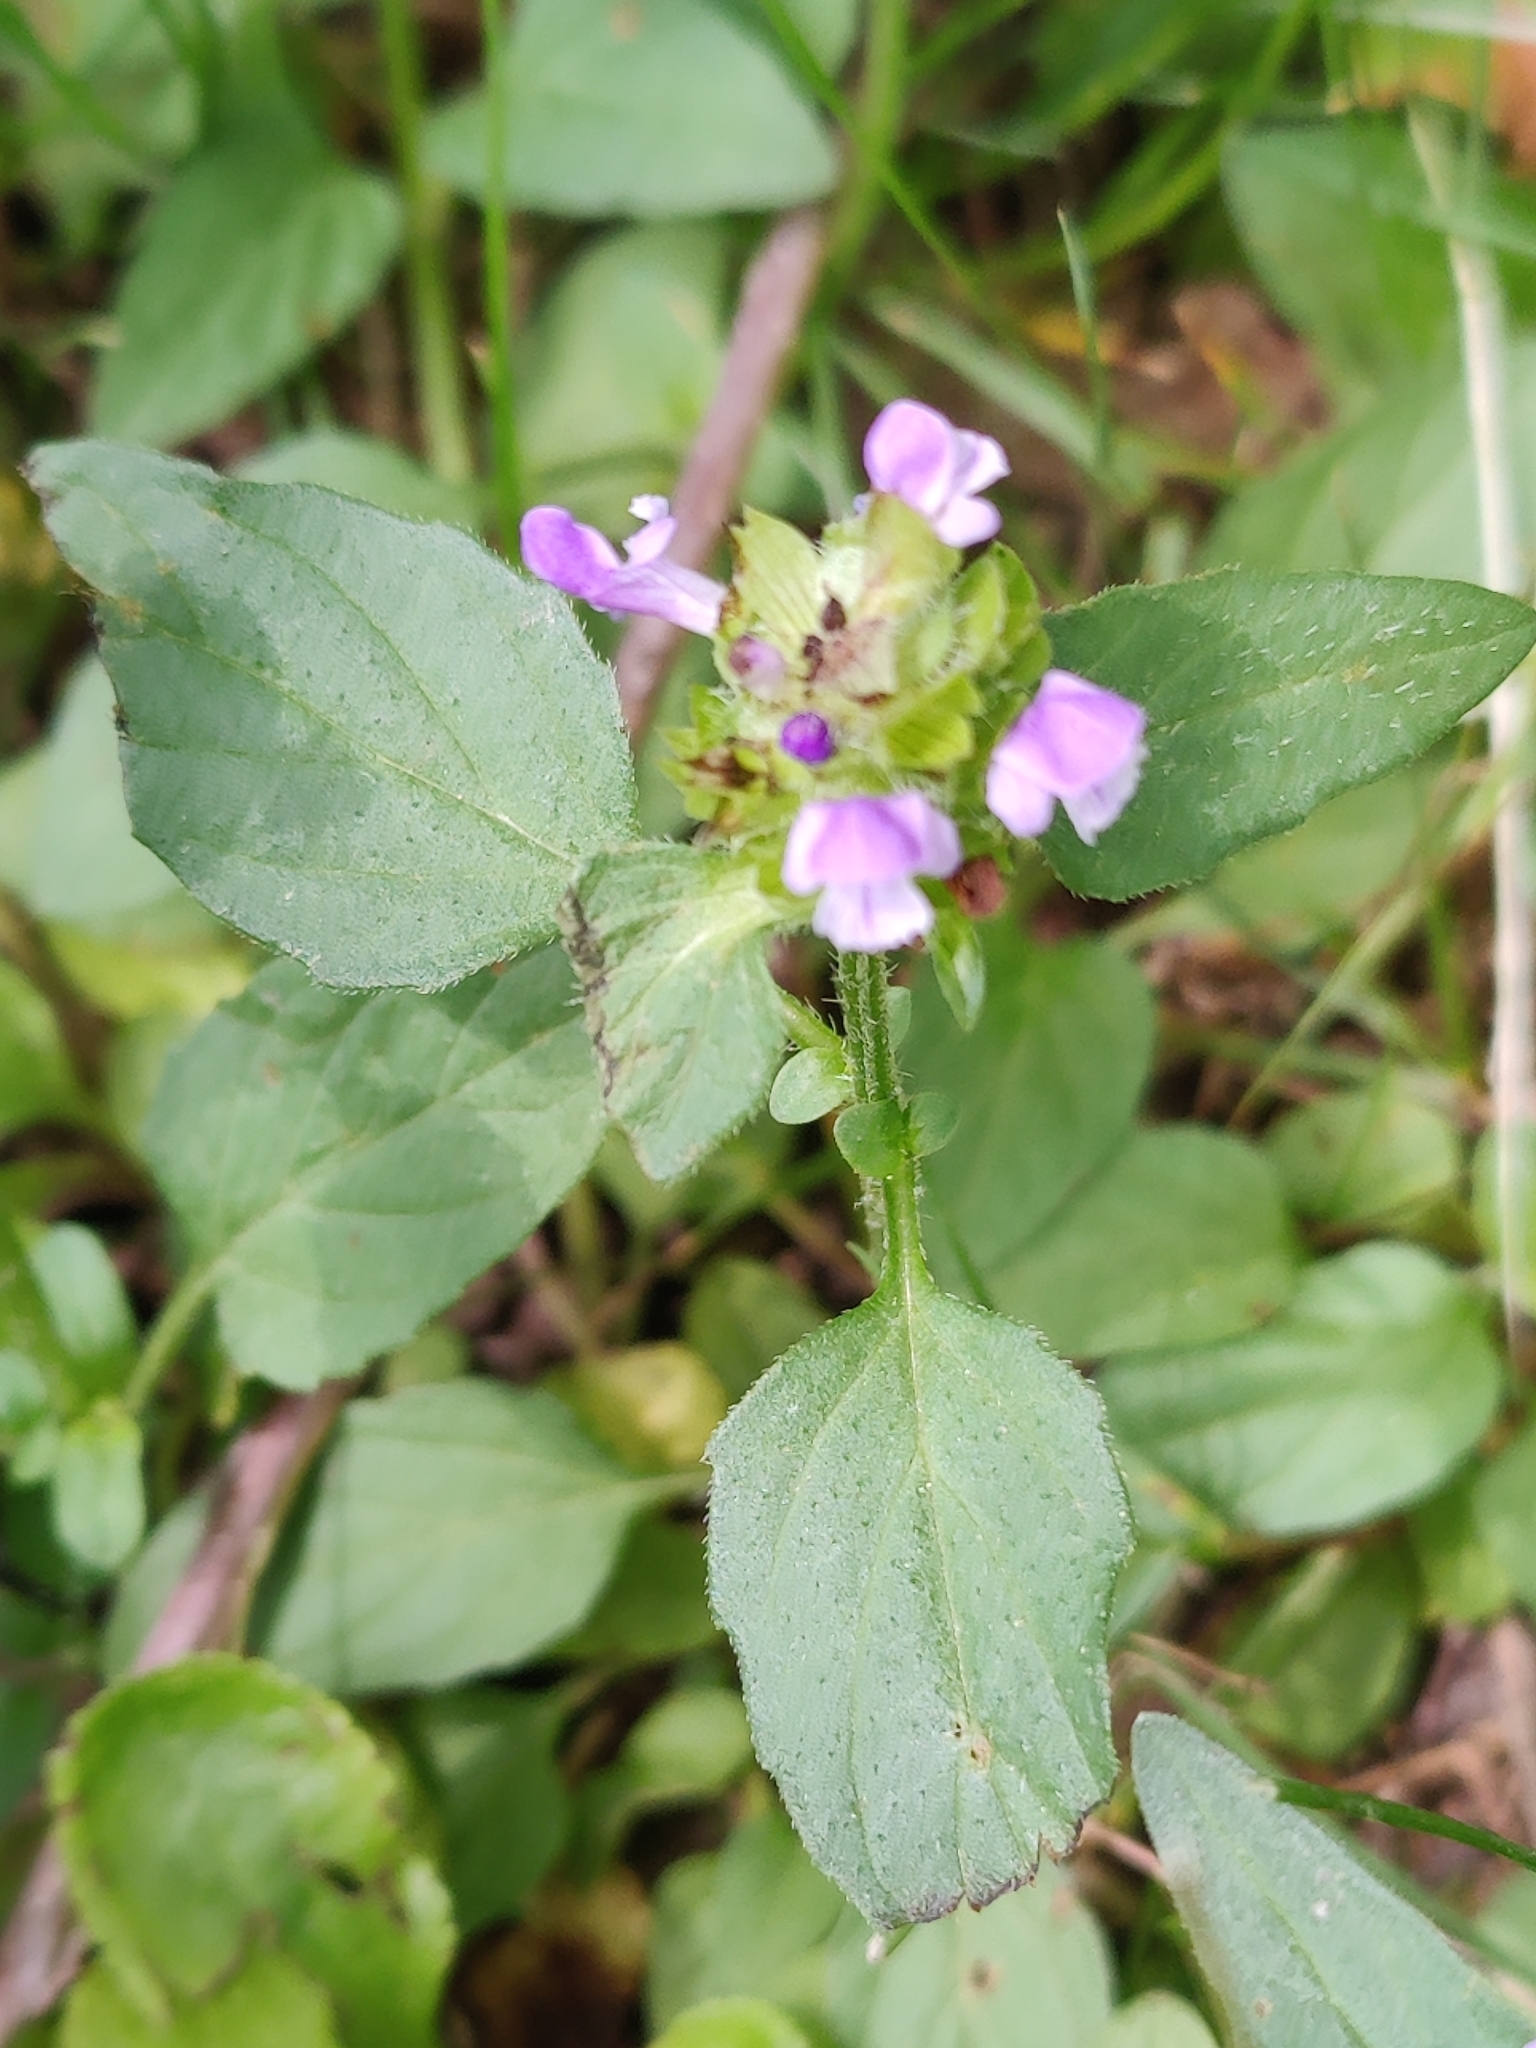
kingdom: Plantae
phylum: Tracheophyta
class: Magnoliopsida
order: Lamiales
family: Lamiaceae
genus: Prunella
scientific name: Prunella vulgaris
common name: Heal-all
